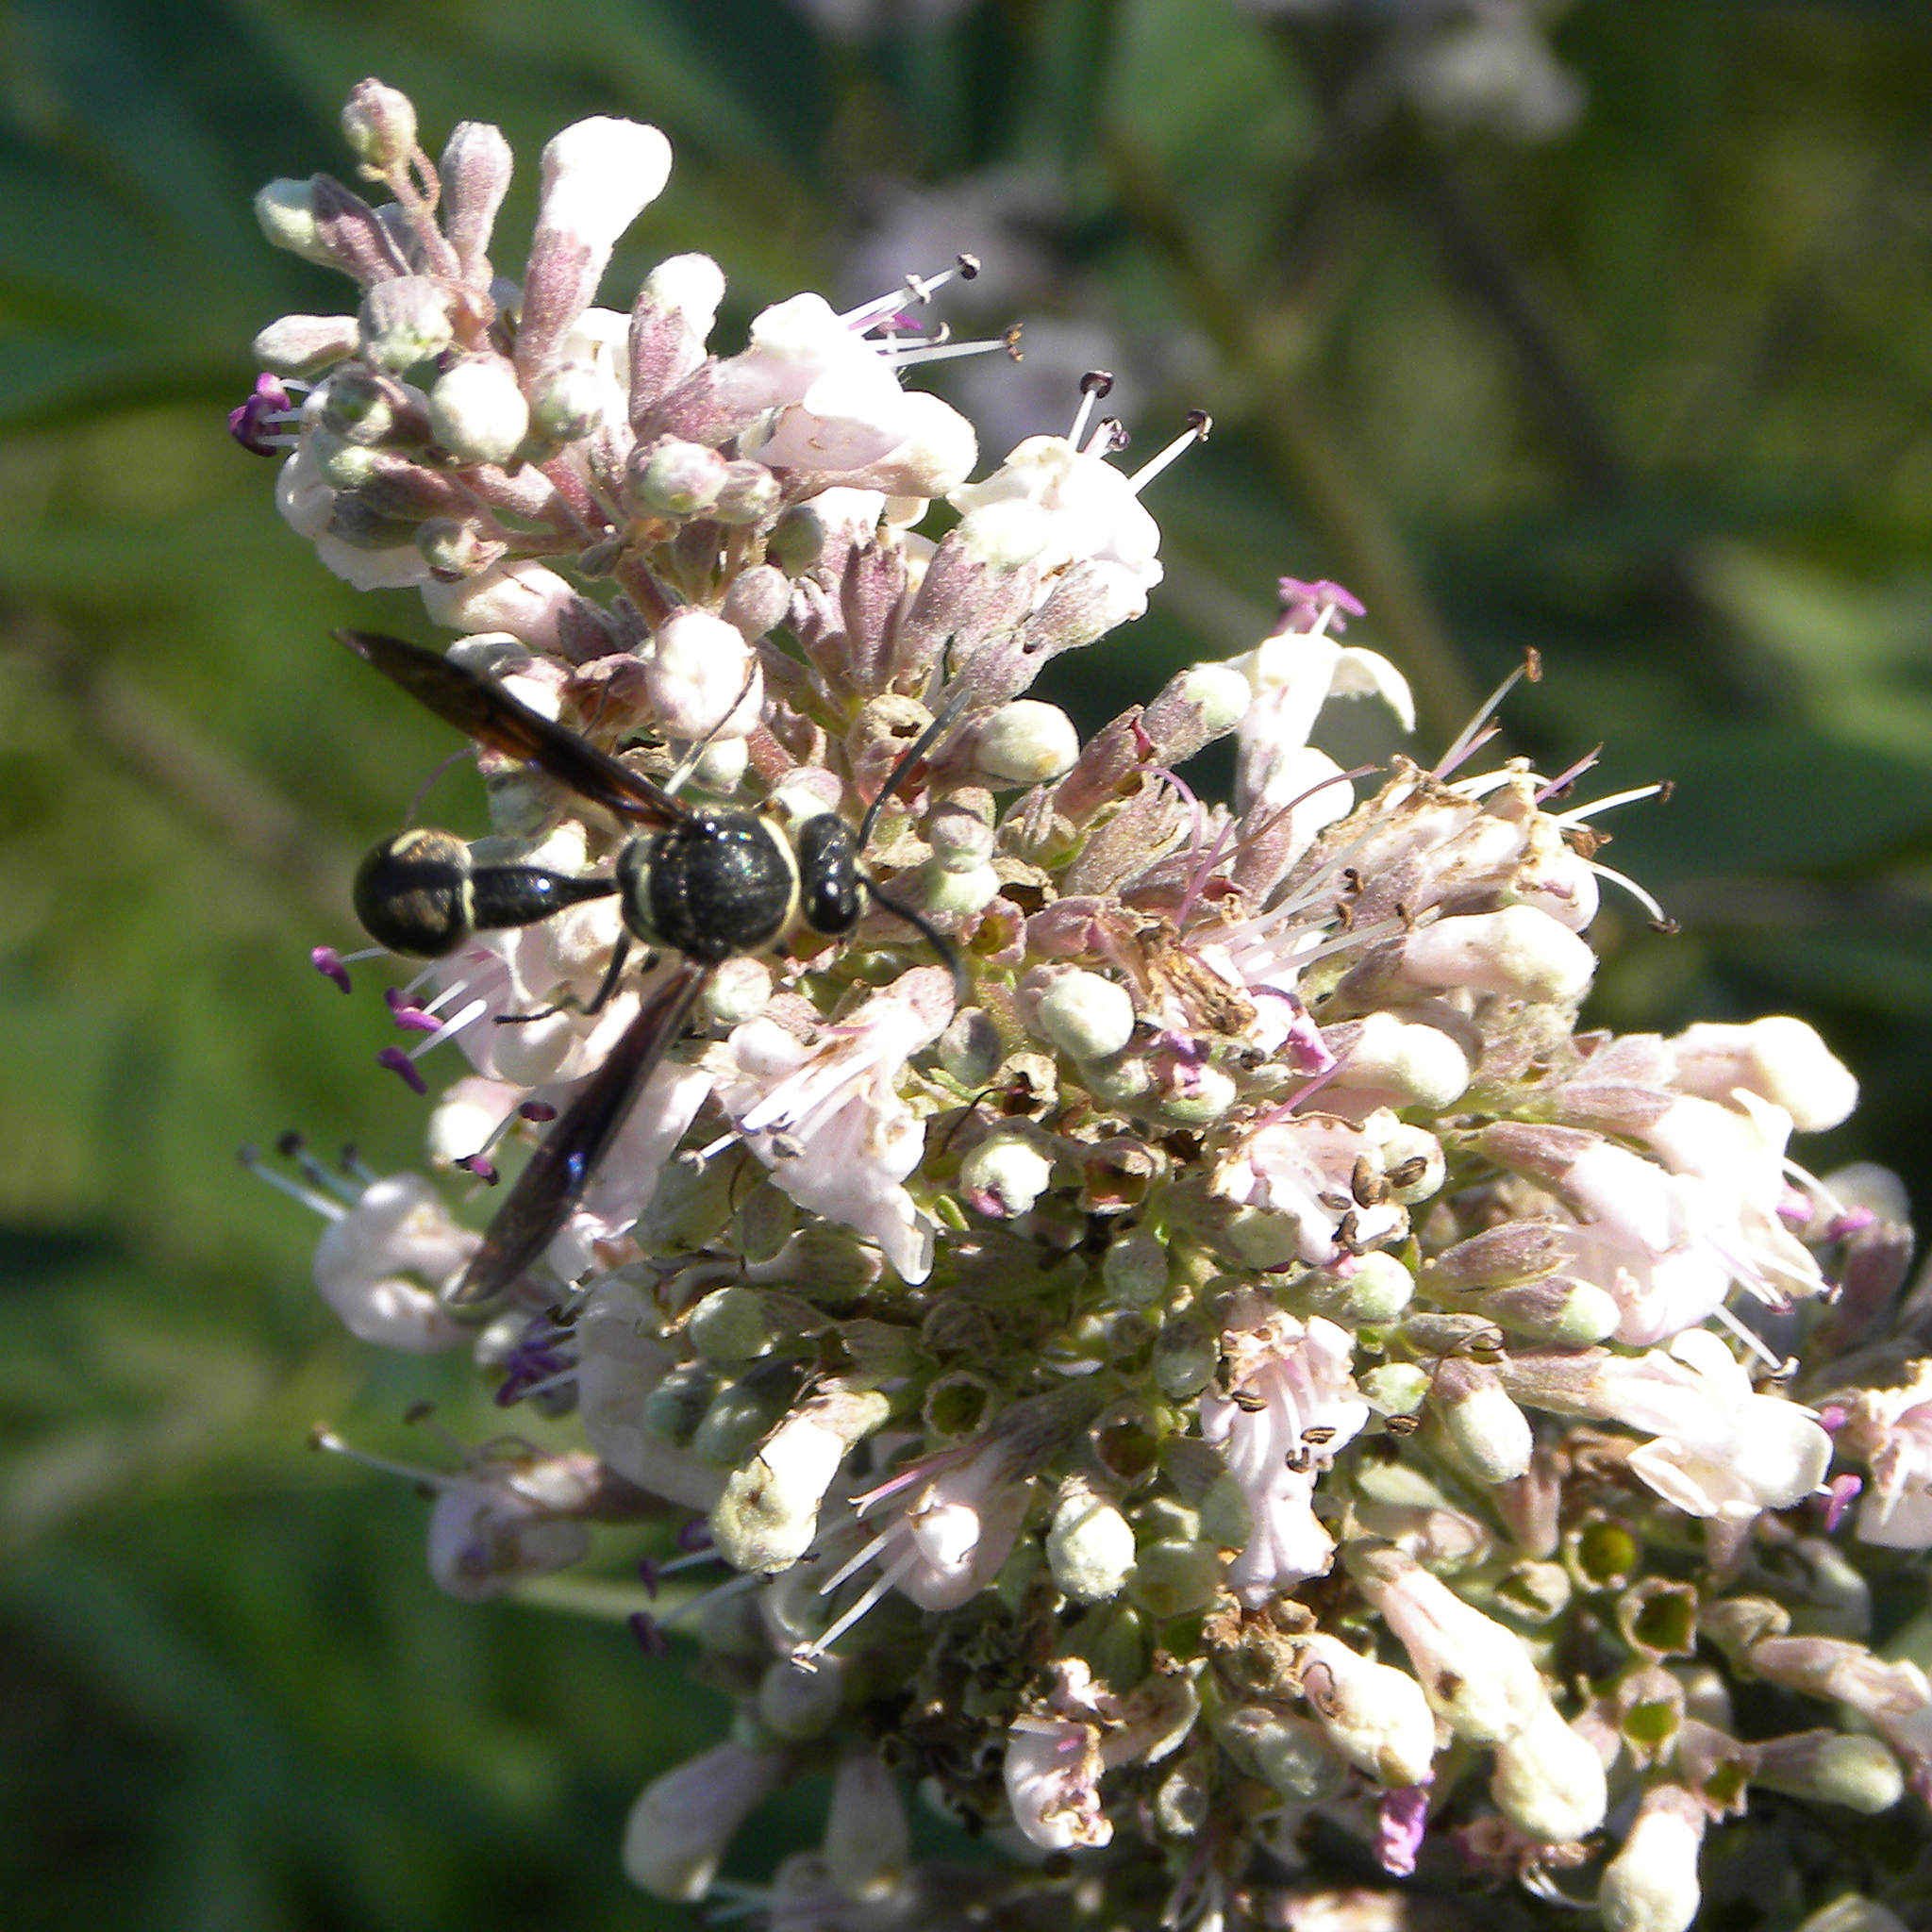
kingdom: Animalia
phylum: Arthropoda
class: Insecta
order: Hymenoptera
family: Vespidae
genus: Eumenes
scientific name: Eumenes fraternus
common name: Fraternal potter wasp
